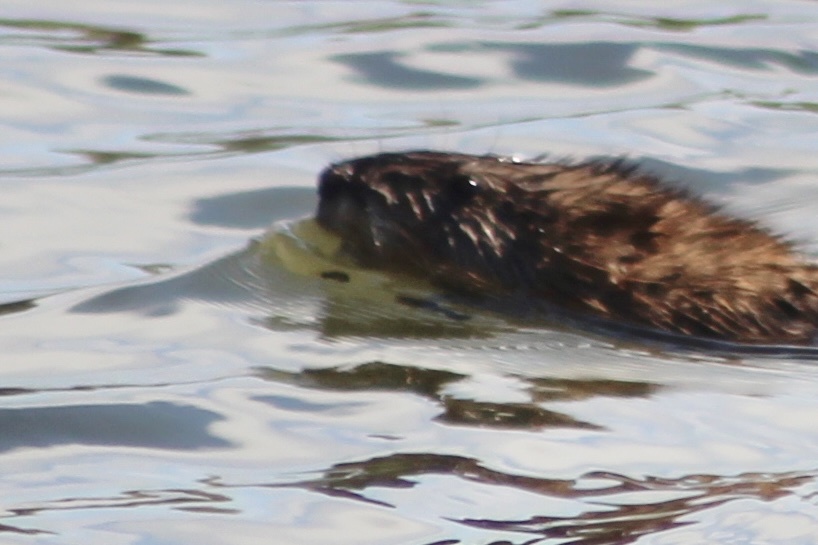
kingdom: Animalia
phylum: Chordata
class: Mammalia
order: Rodentia
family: Cricetidae
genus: Ondatra
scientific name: Ondatra zibethicus
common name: Muskrat
